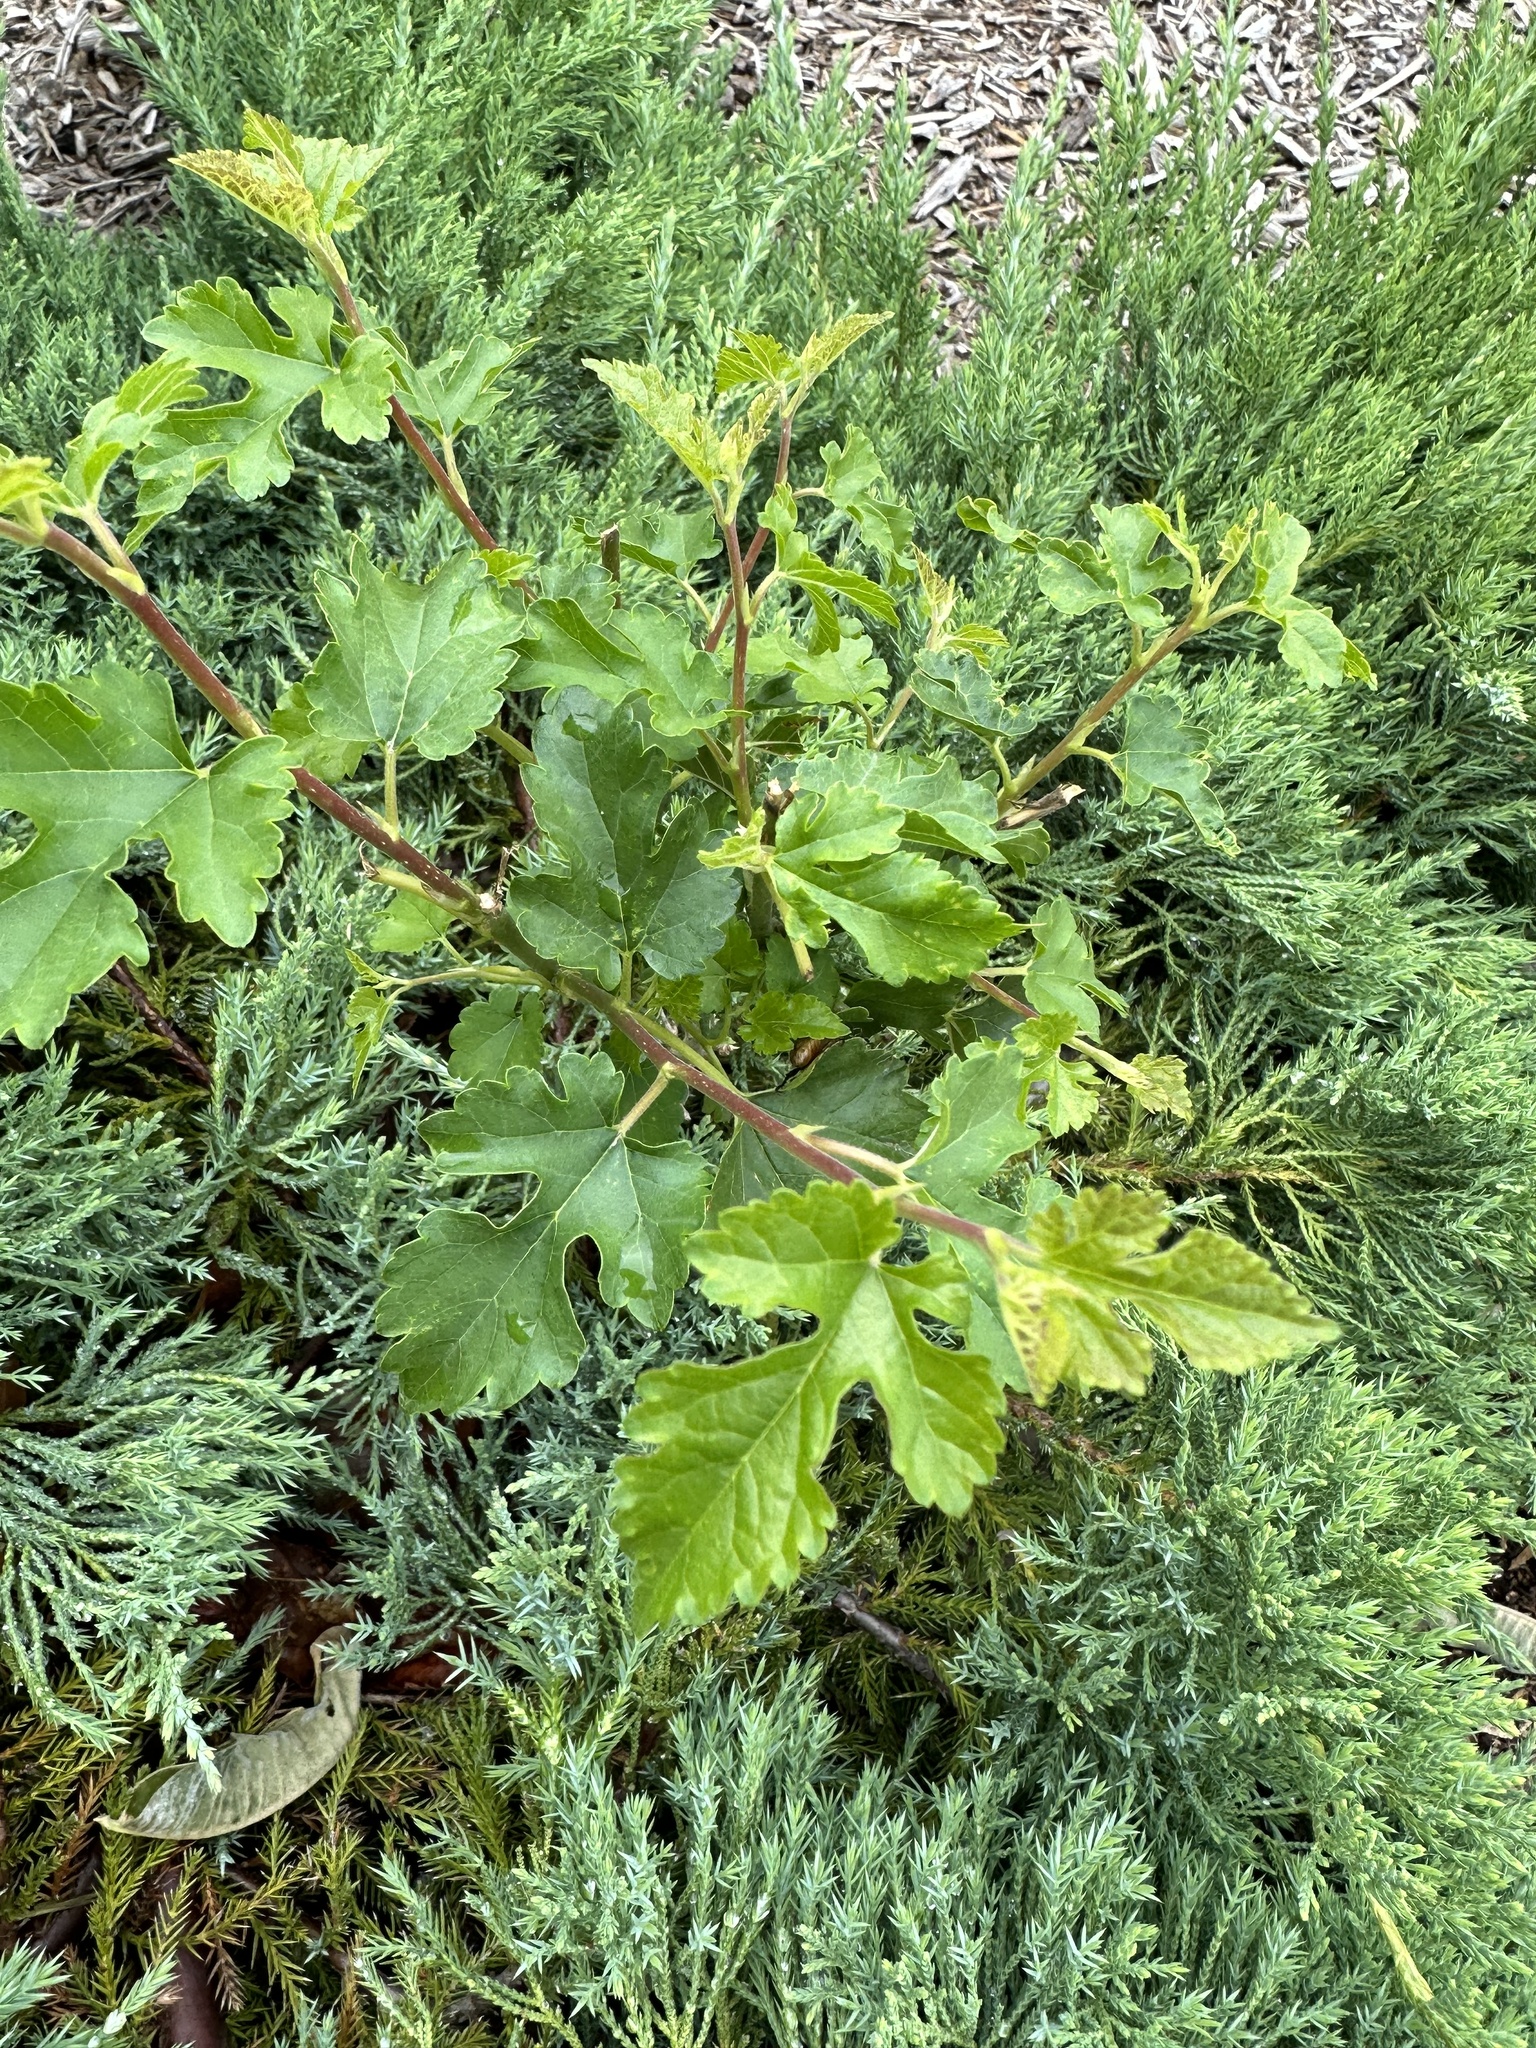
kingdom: Plantae
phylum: Tracheophyta
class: Magnoliopsida
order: Rosales
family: Moraceae
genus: Morus
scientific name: Morus alba
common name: White mulberry
